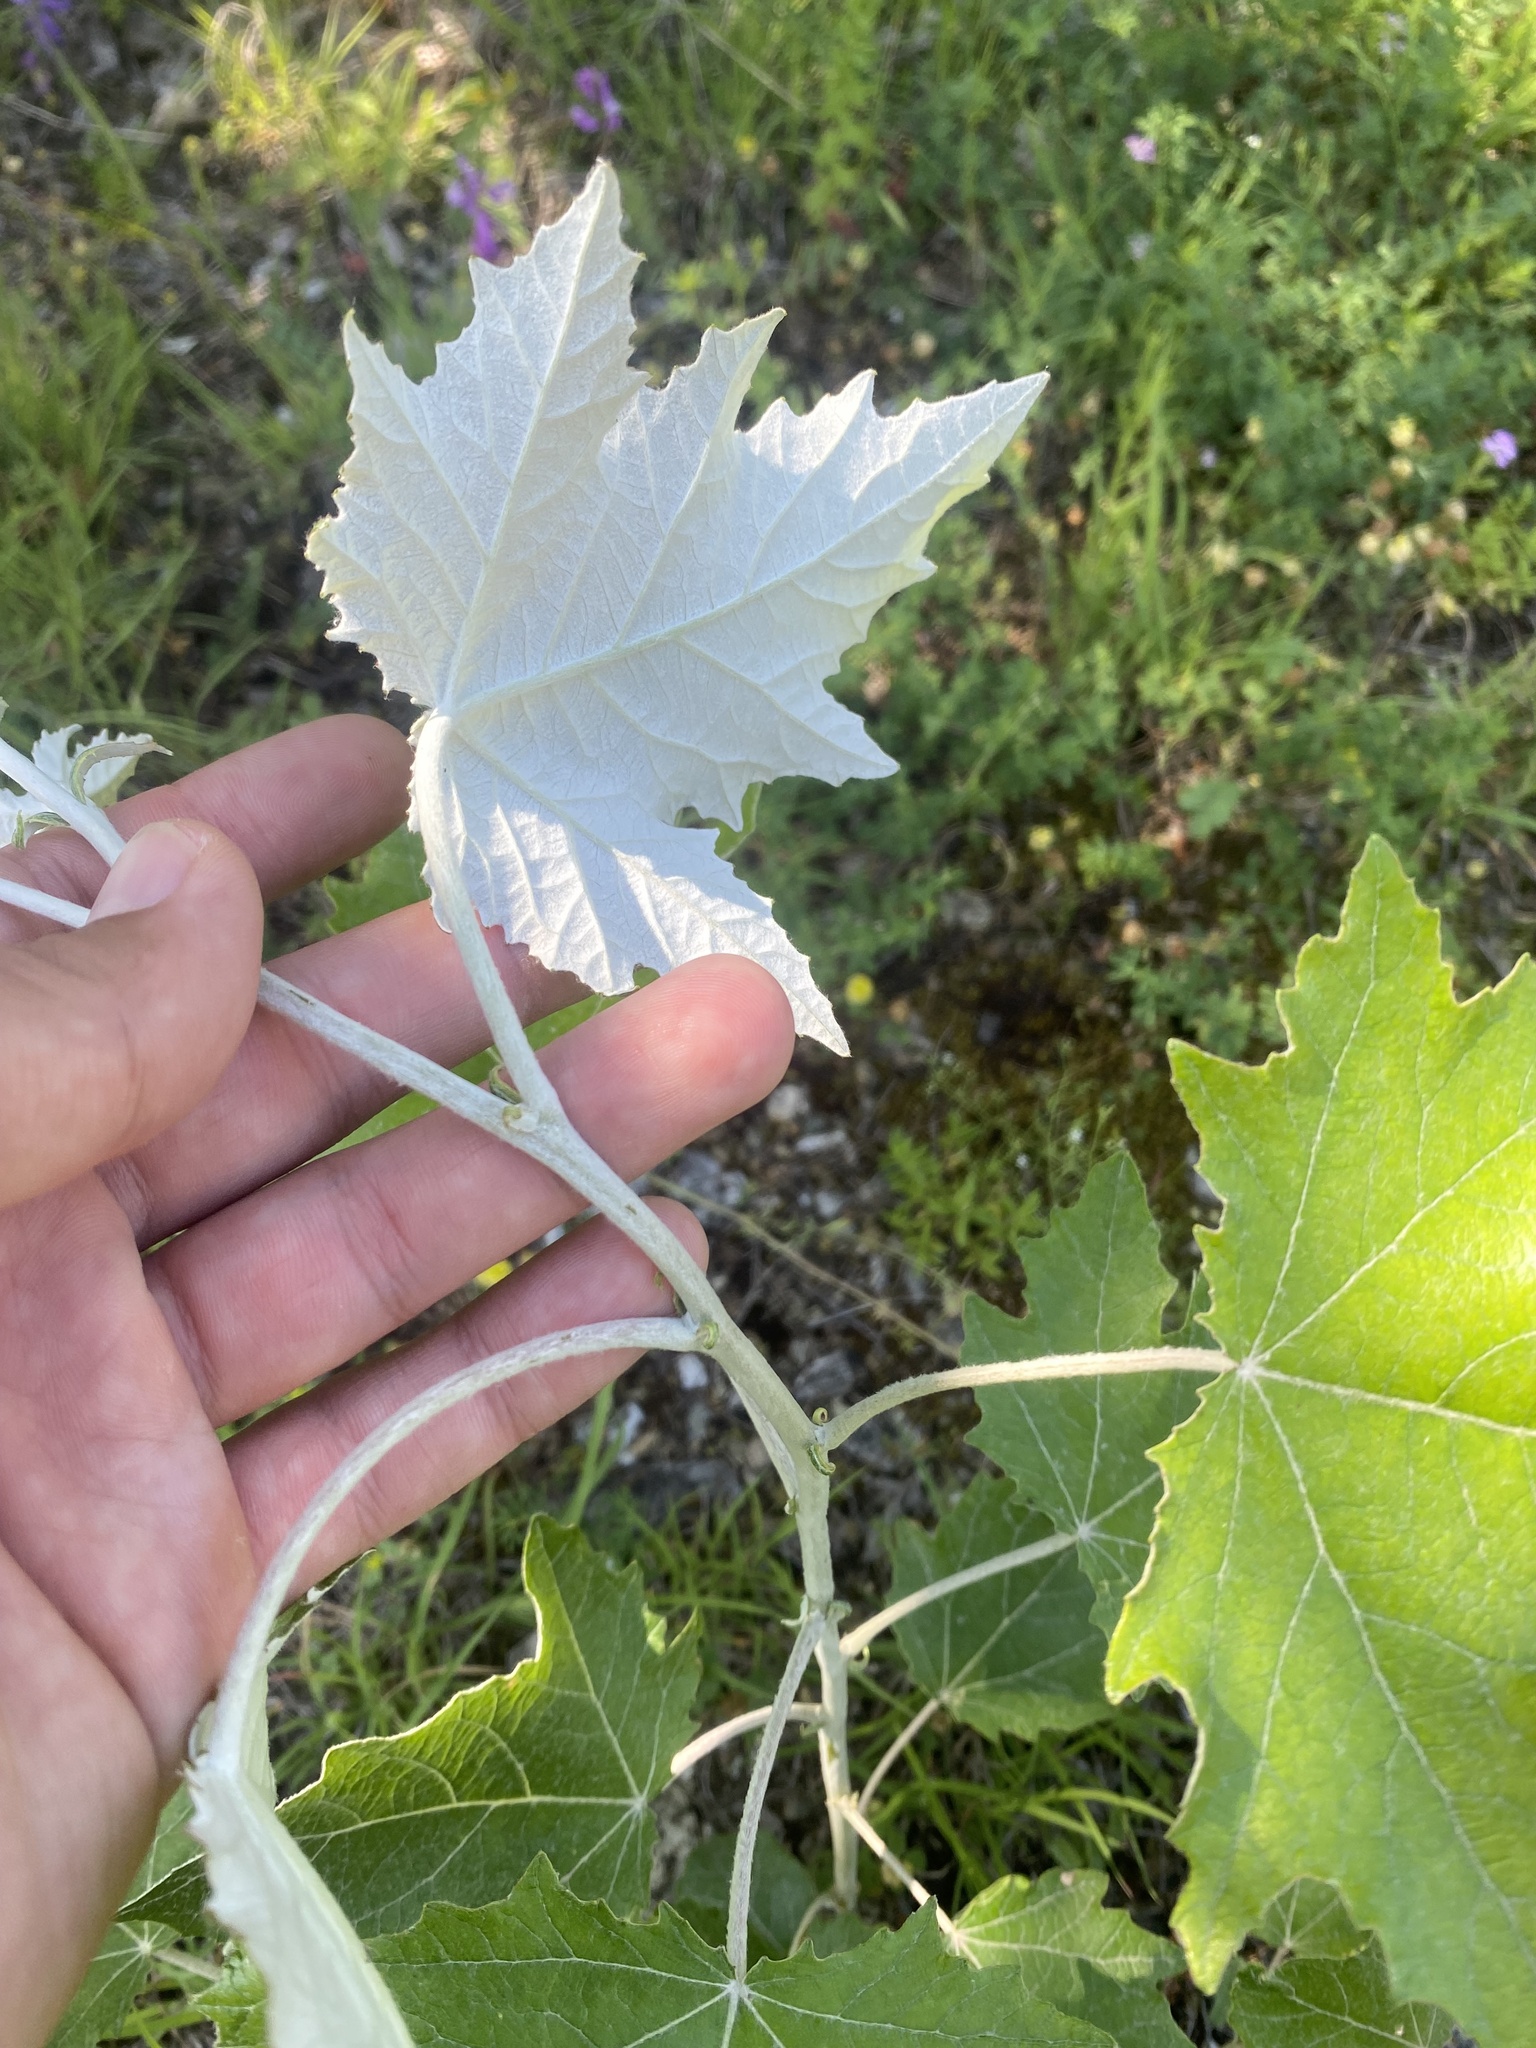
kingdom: Plantae
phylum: Tracheophyta
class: Magnoliopsida
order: Malpighiales
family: Salicaceae
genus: Populus
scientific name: Populus alba
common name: White poplar
